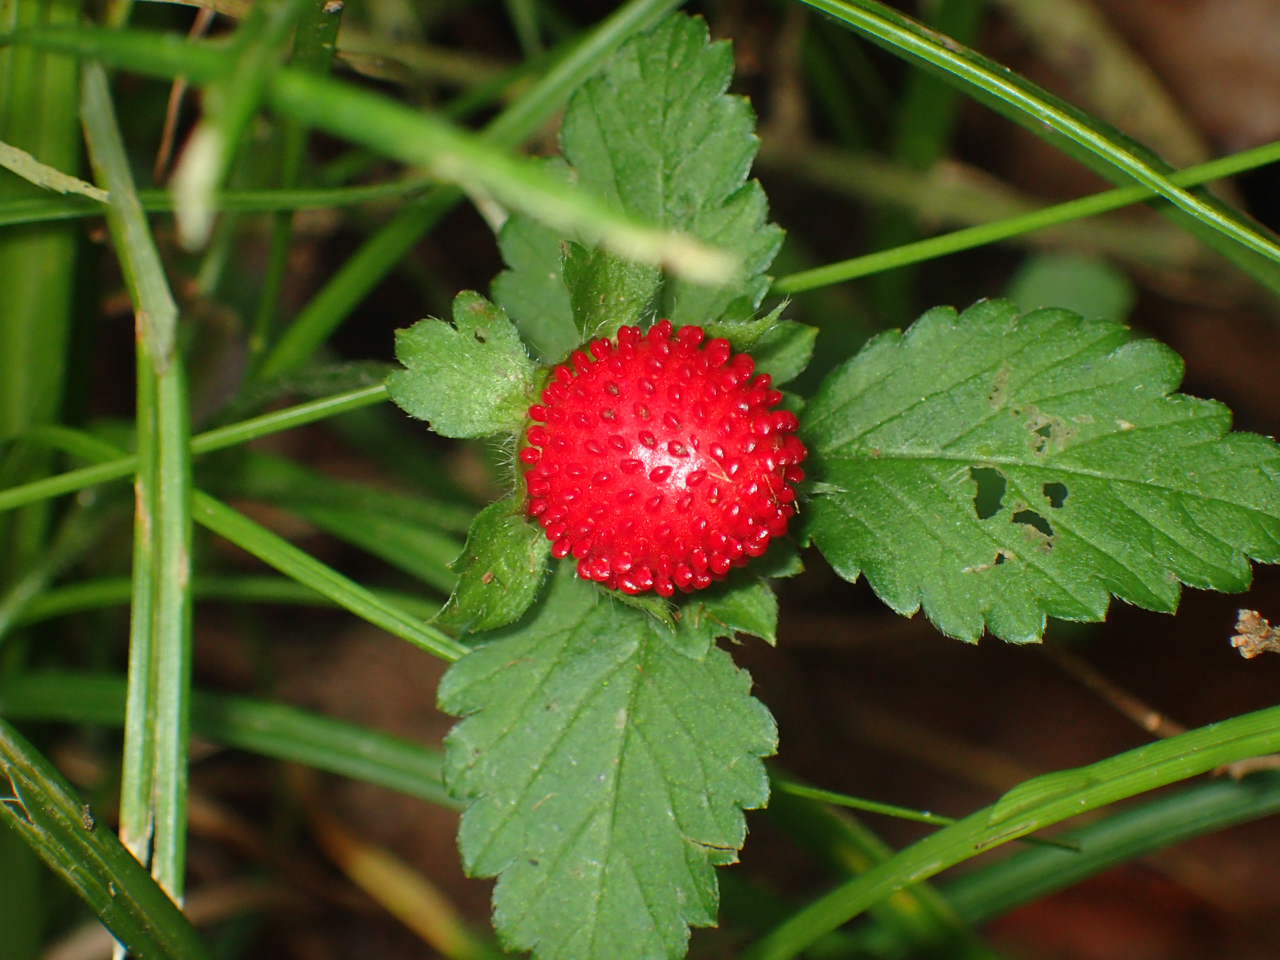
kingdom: Plantae
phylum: Tracheophyta
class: Magnoliopsida
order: Rosales
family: Rosaceae
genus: Potentilla
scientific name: Potentilla indica
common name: Yellow-flowered strawberry
